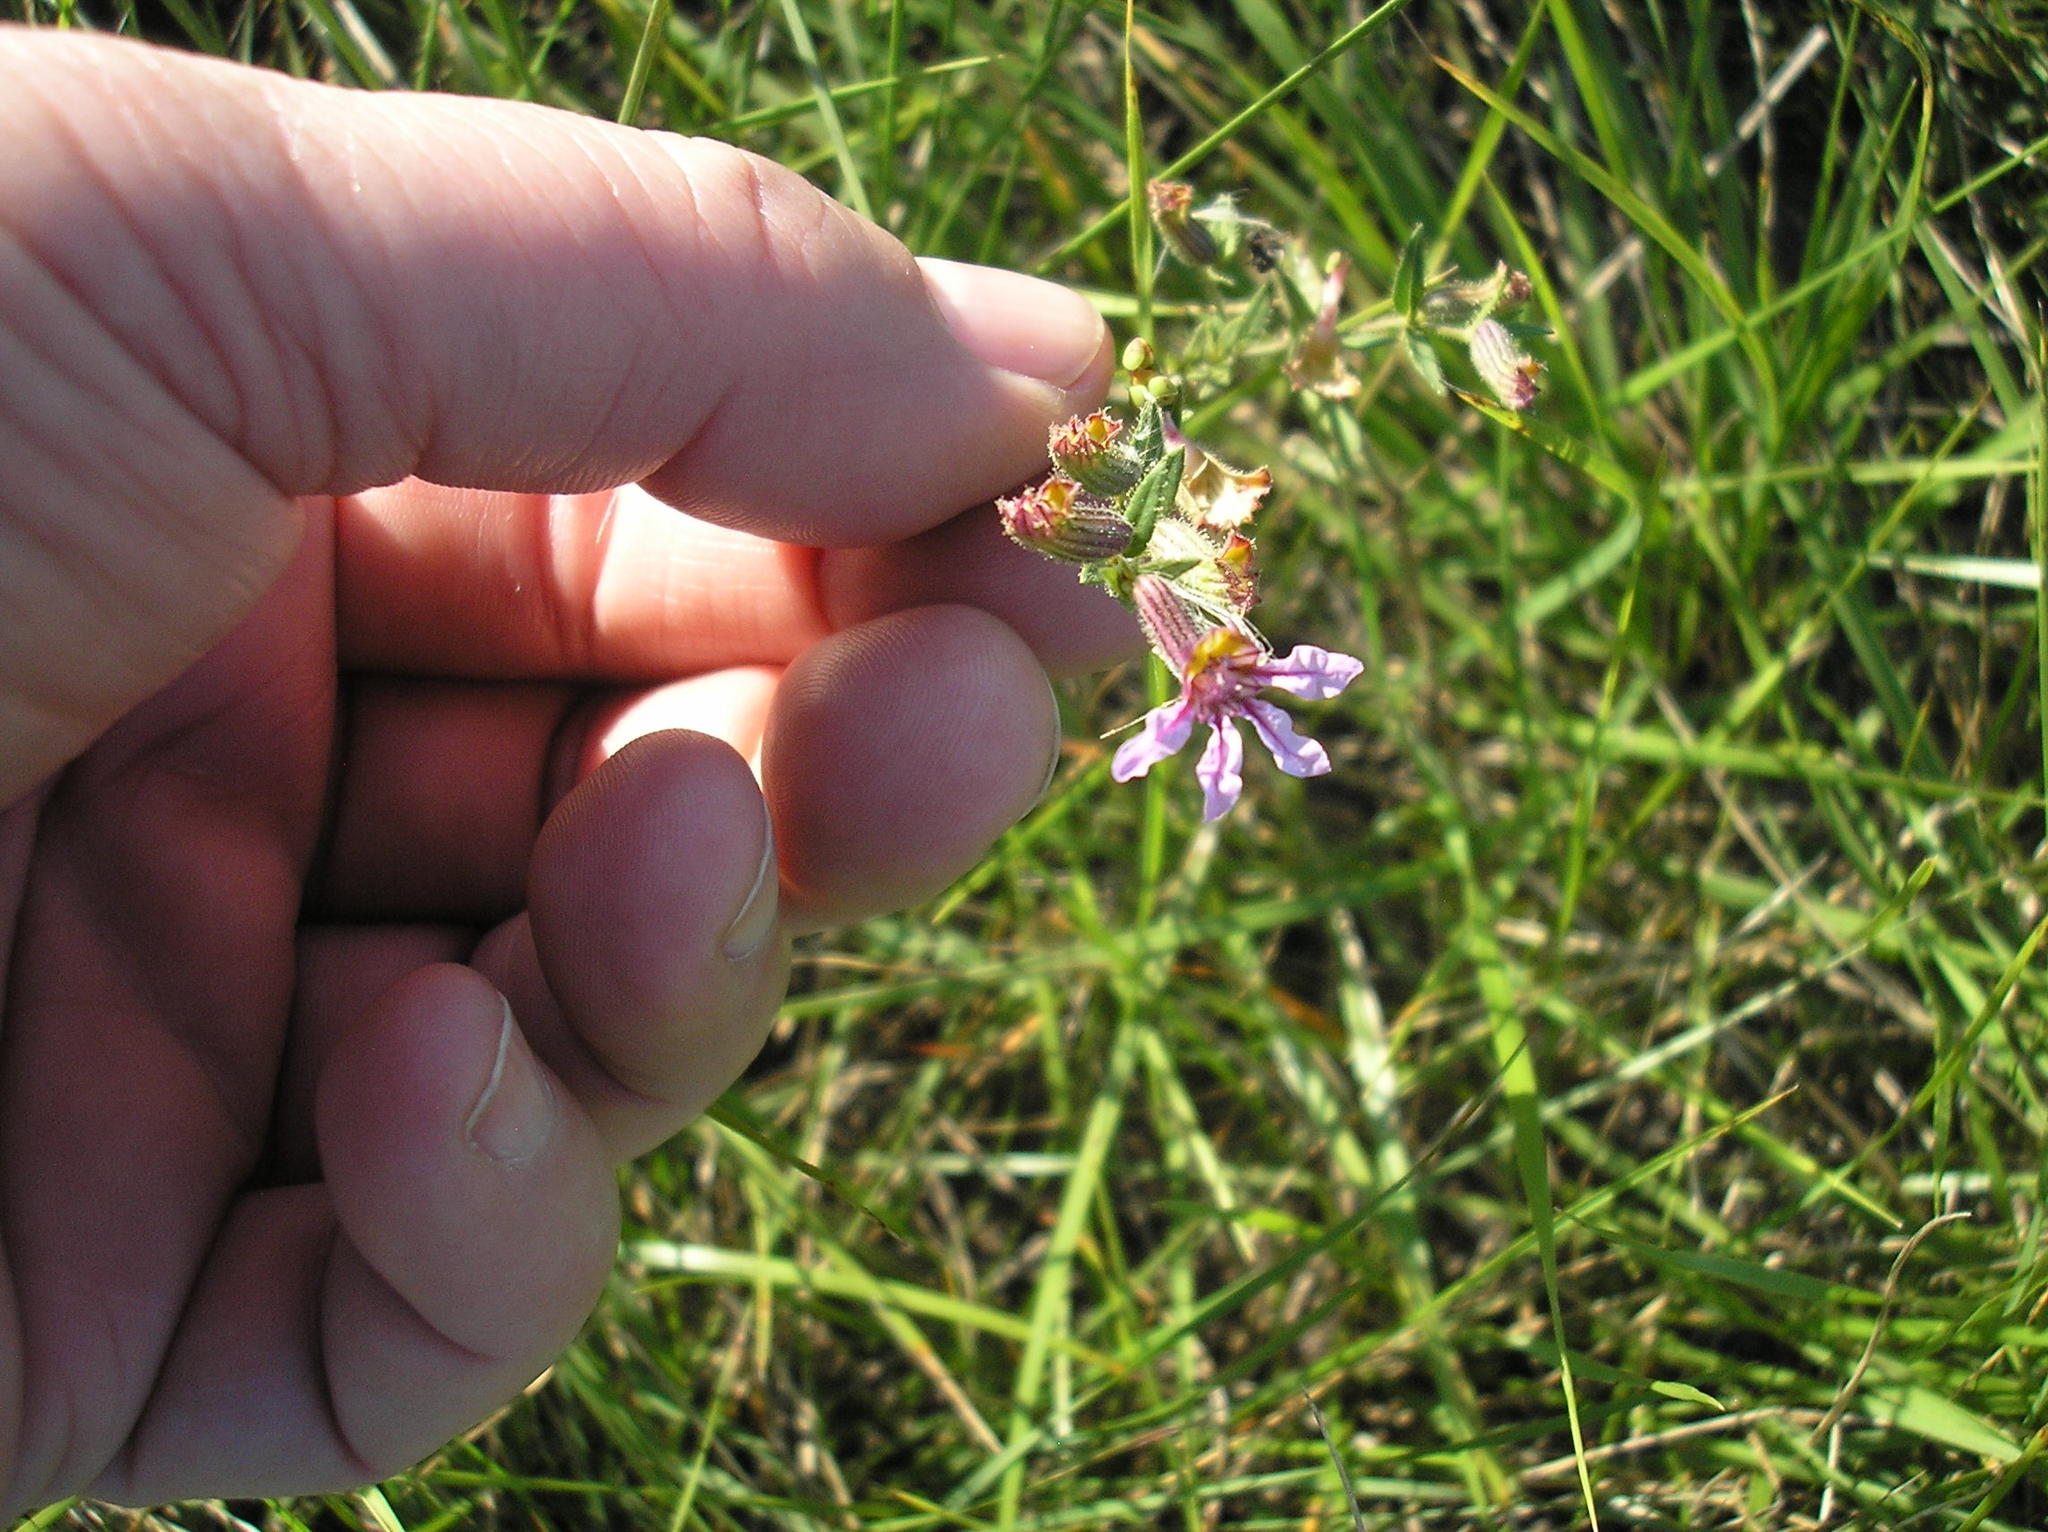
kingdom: Plantae
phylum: Tracheophyta
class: Magnoliopsida
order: Myrtales
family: Lythraceae
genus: Cuphea
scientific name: Cuphea glutinosa
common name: Sticky waxweed
